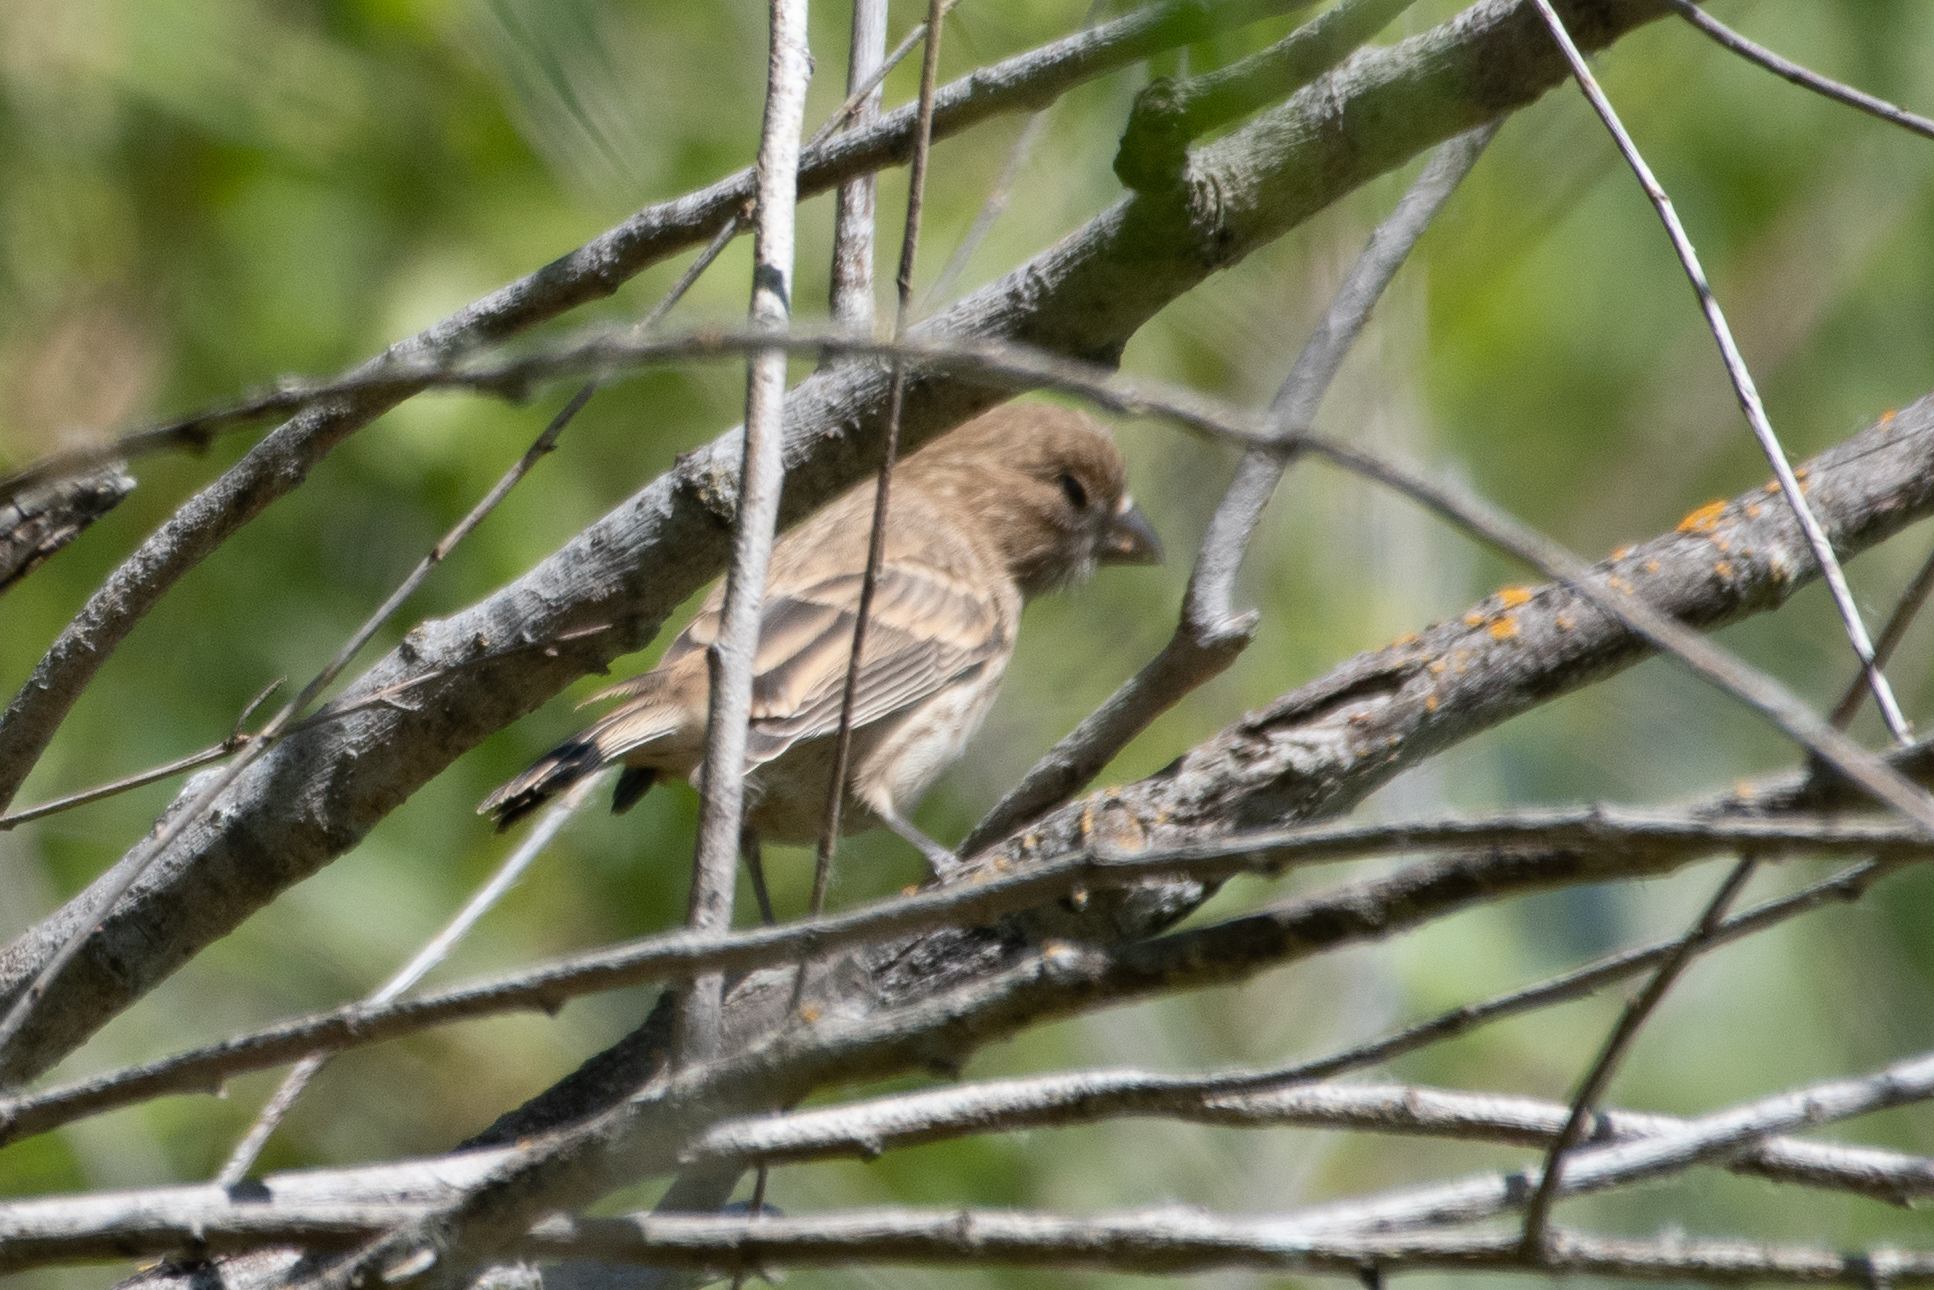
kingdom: Animalia
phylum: Chordata
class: Aves
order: Passeriformes
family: Fringillidae
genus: Haemorhous
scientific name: Haemorhous mexicanus
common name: House finch
